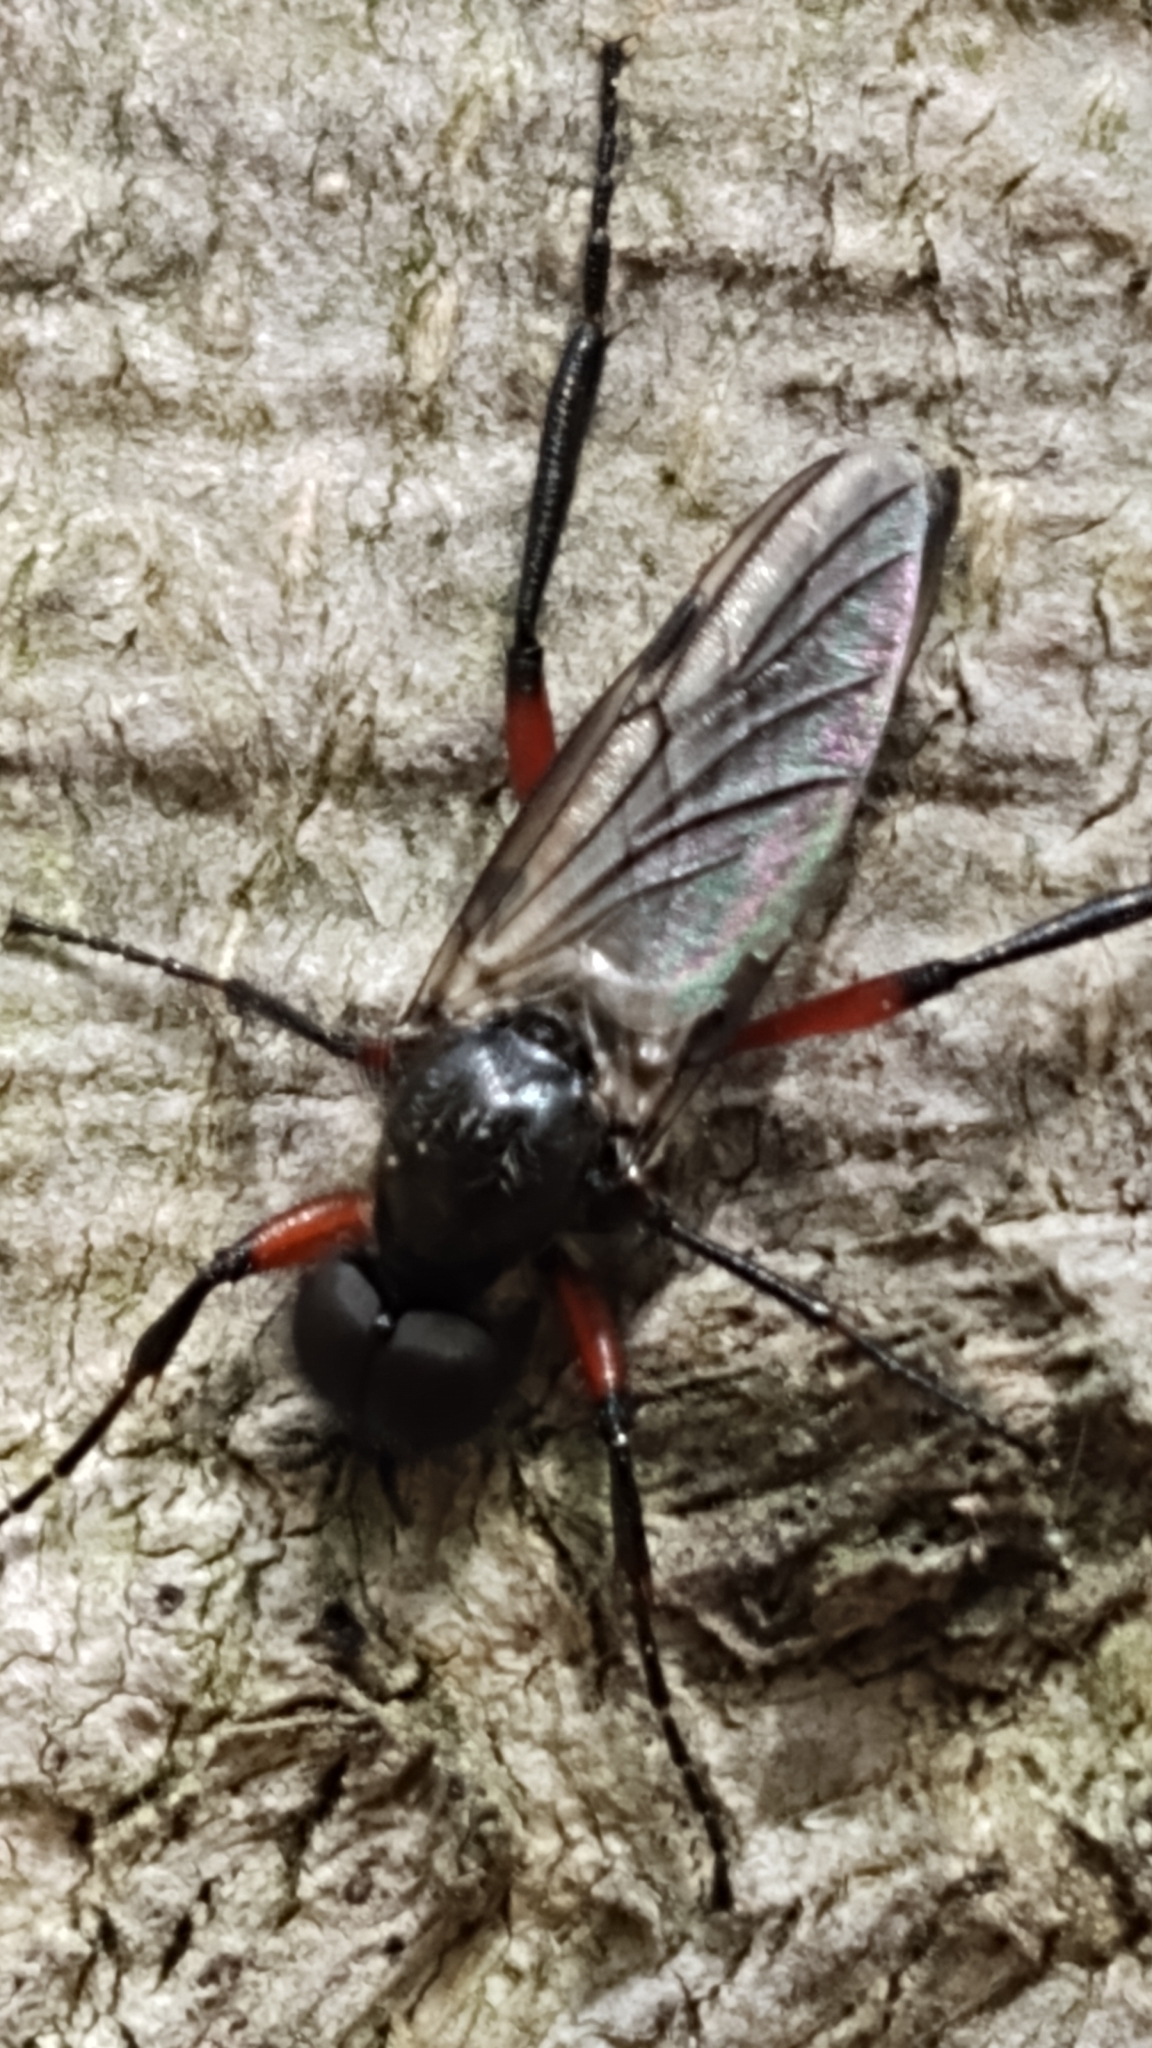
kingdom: Animalia
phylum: Arthropoda
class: Insecta
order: Diptera
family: Bibionidae
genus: Bibio
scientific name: Bibio femoratus
